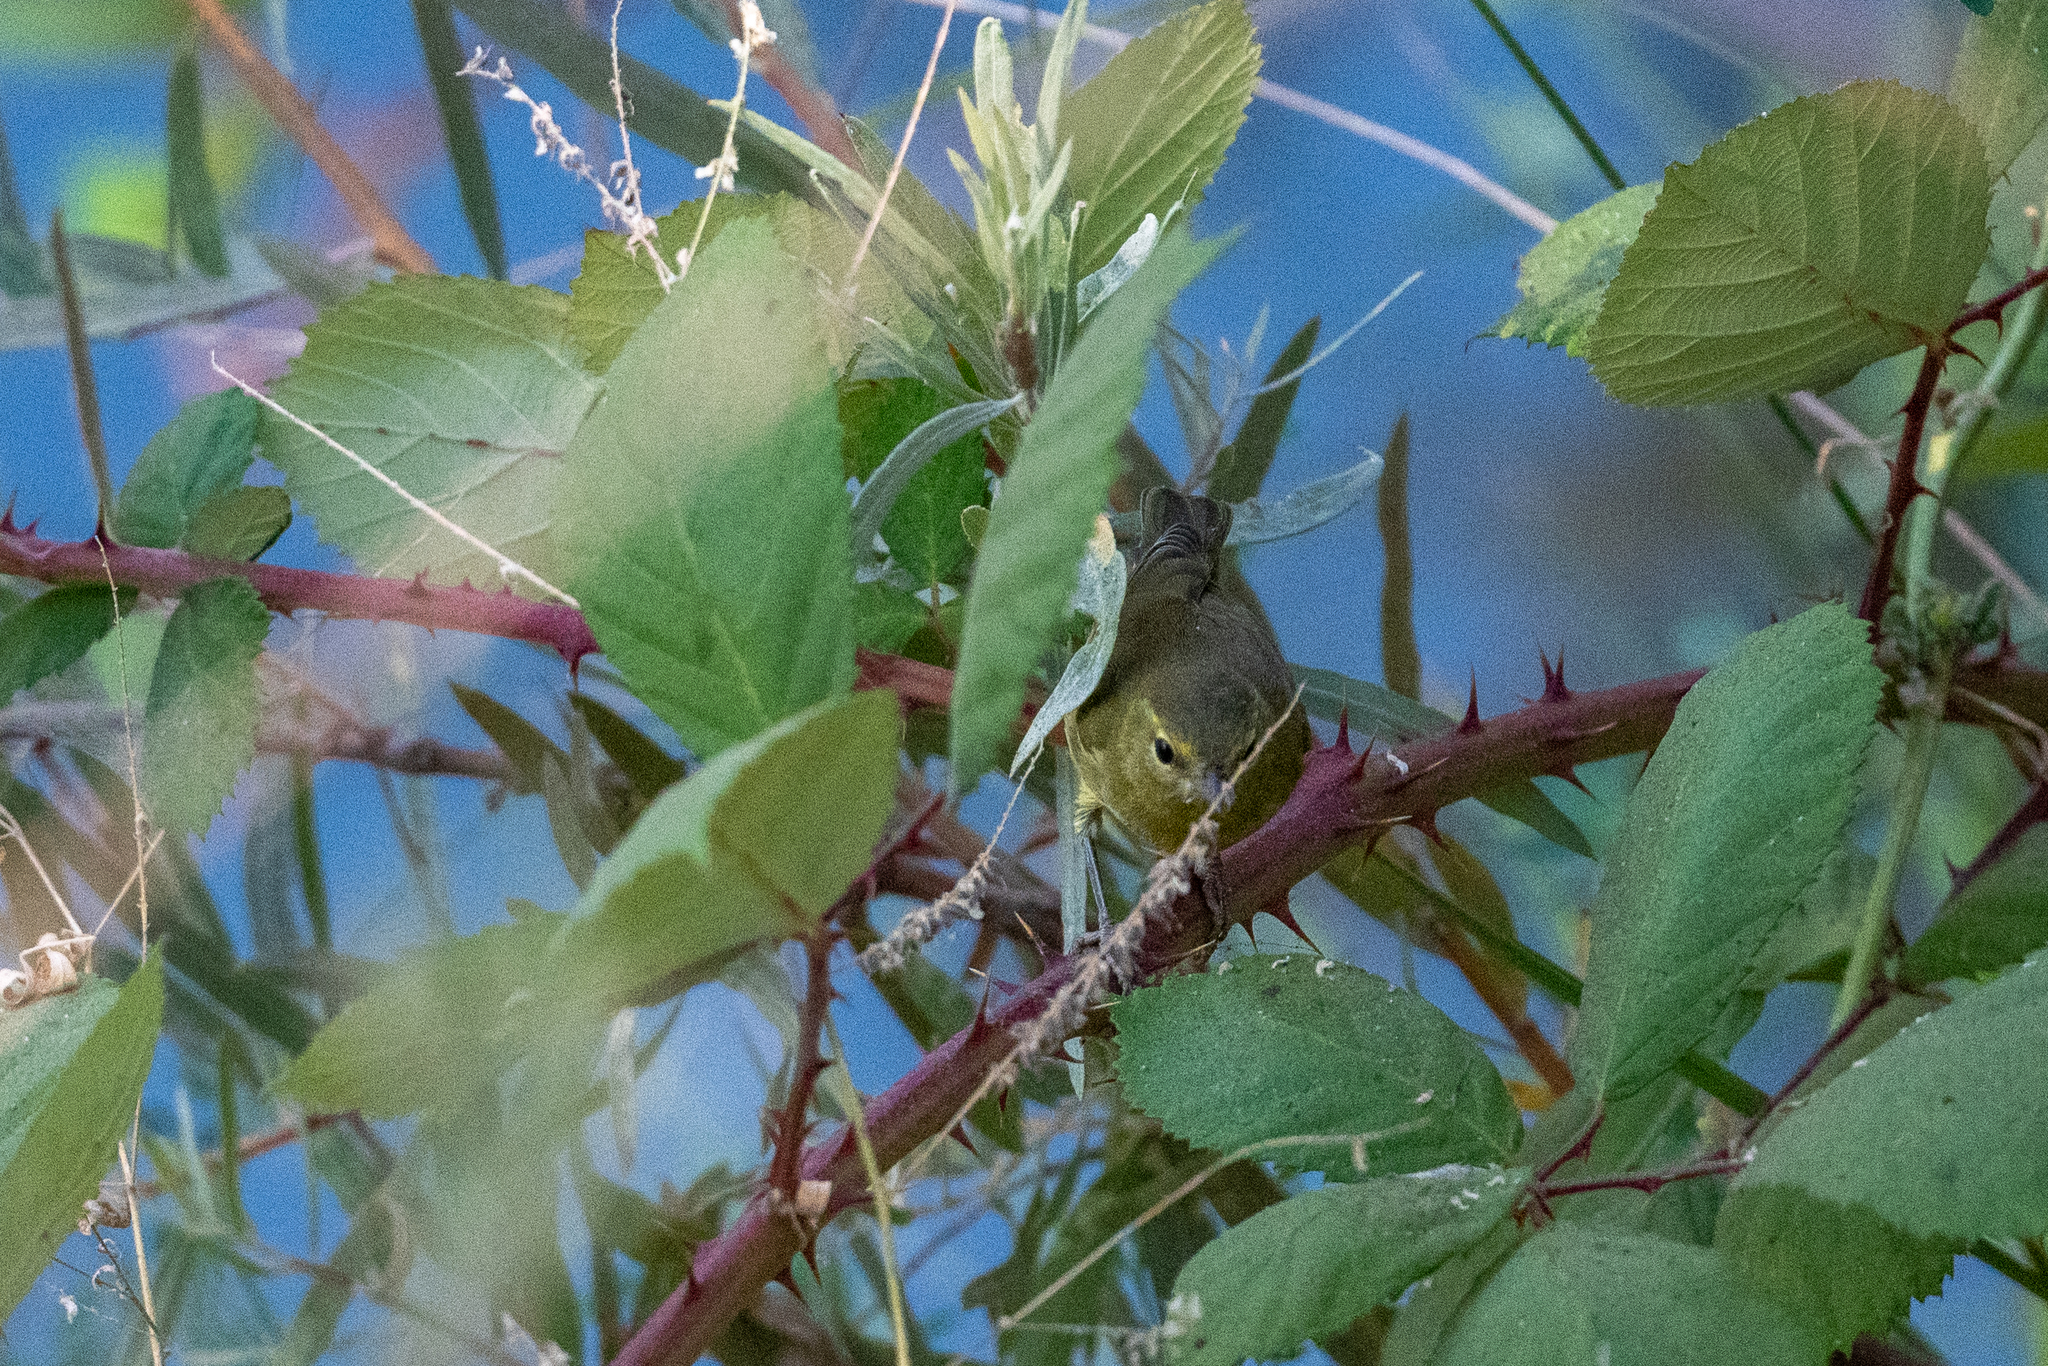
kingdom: Animalia
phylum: Chordata
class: Aves
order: Passeriformes
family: Parulidae
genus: Leiothlypis
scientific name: Leiothlypis celata
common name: Orange-crowned warbler
